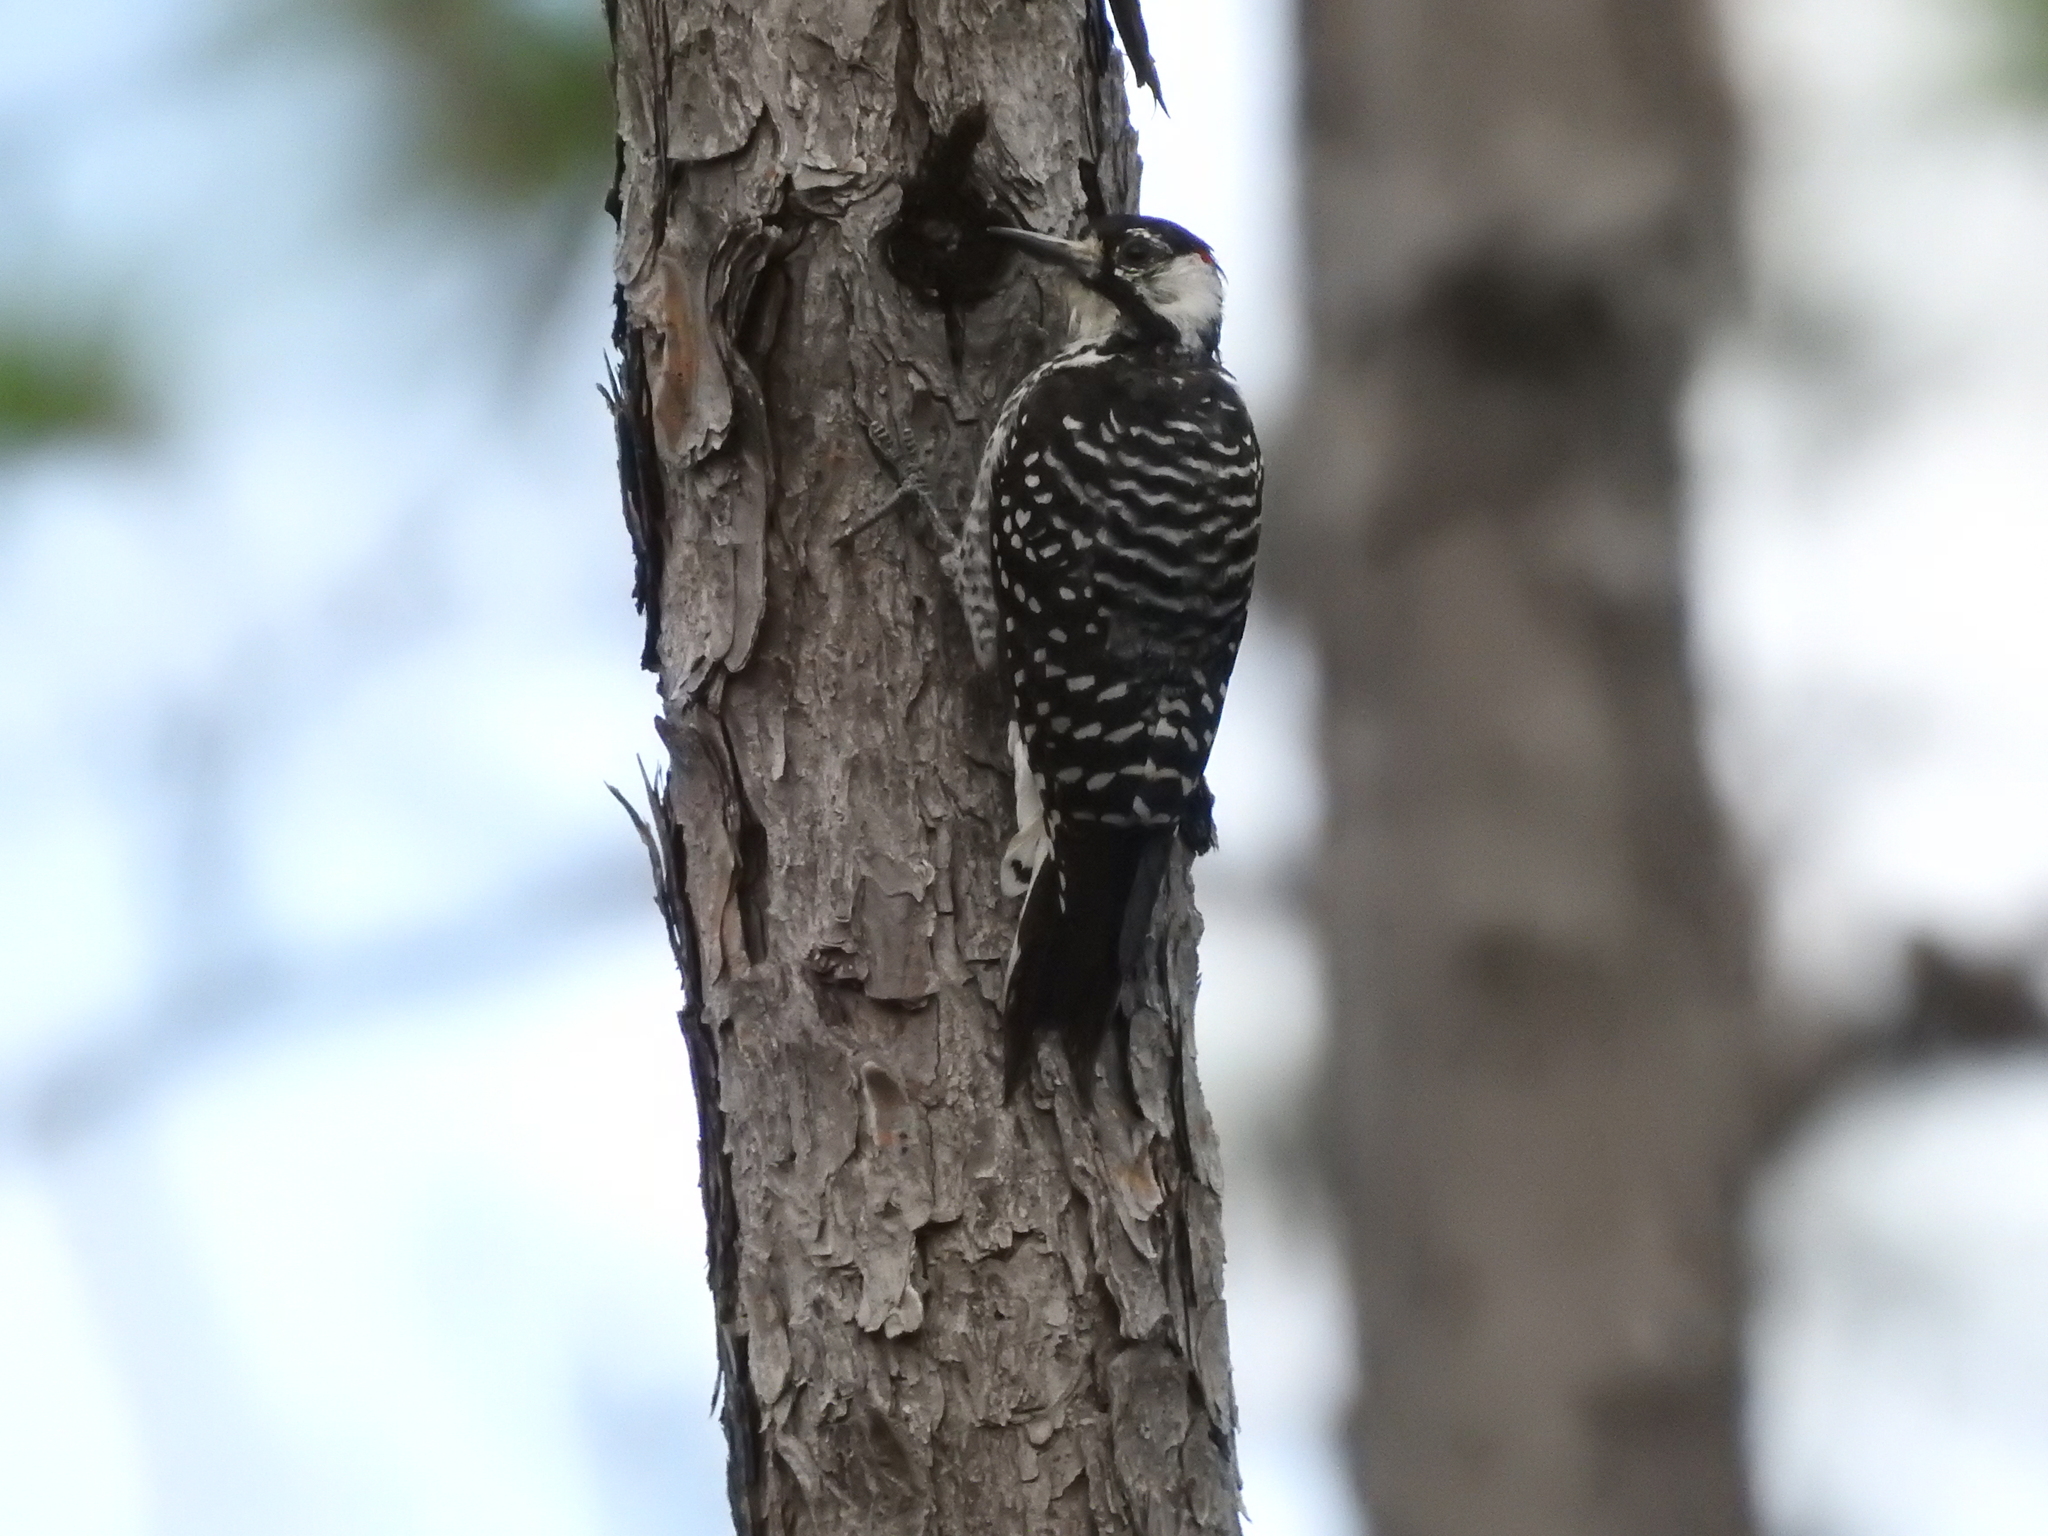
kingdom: Animalia
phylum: Chordata
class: Aves
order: Piciformes
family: Picidae
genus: Leuconotopicus
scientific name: Leuconotopicus borealis
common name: Red-cockaded woodpecker
